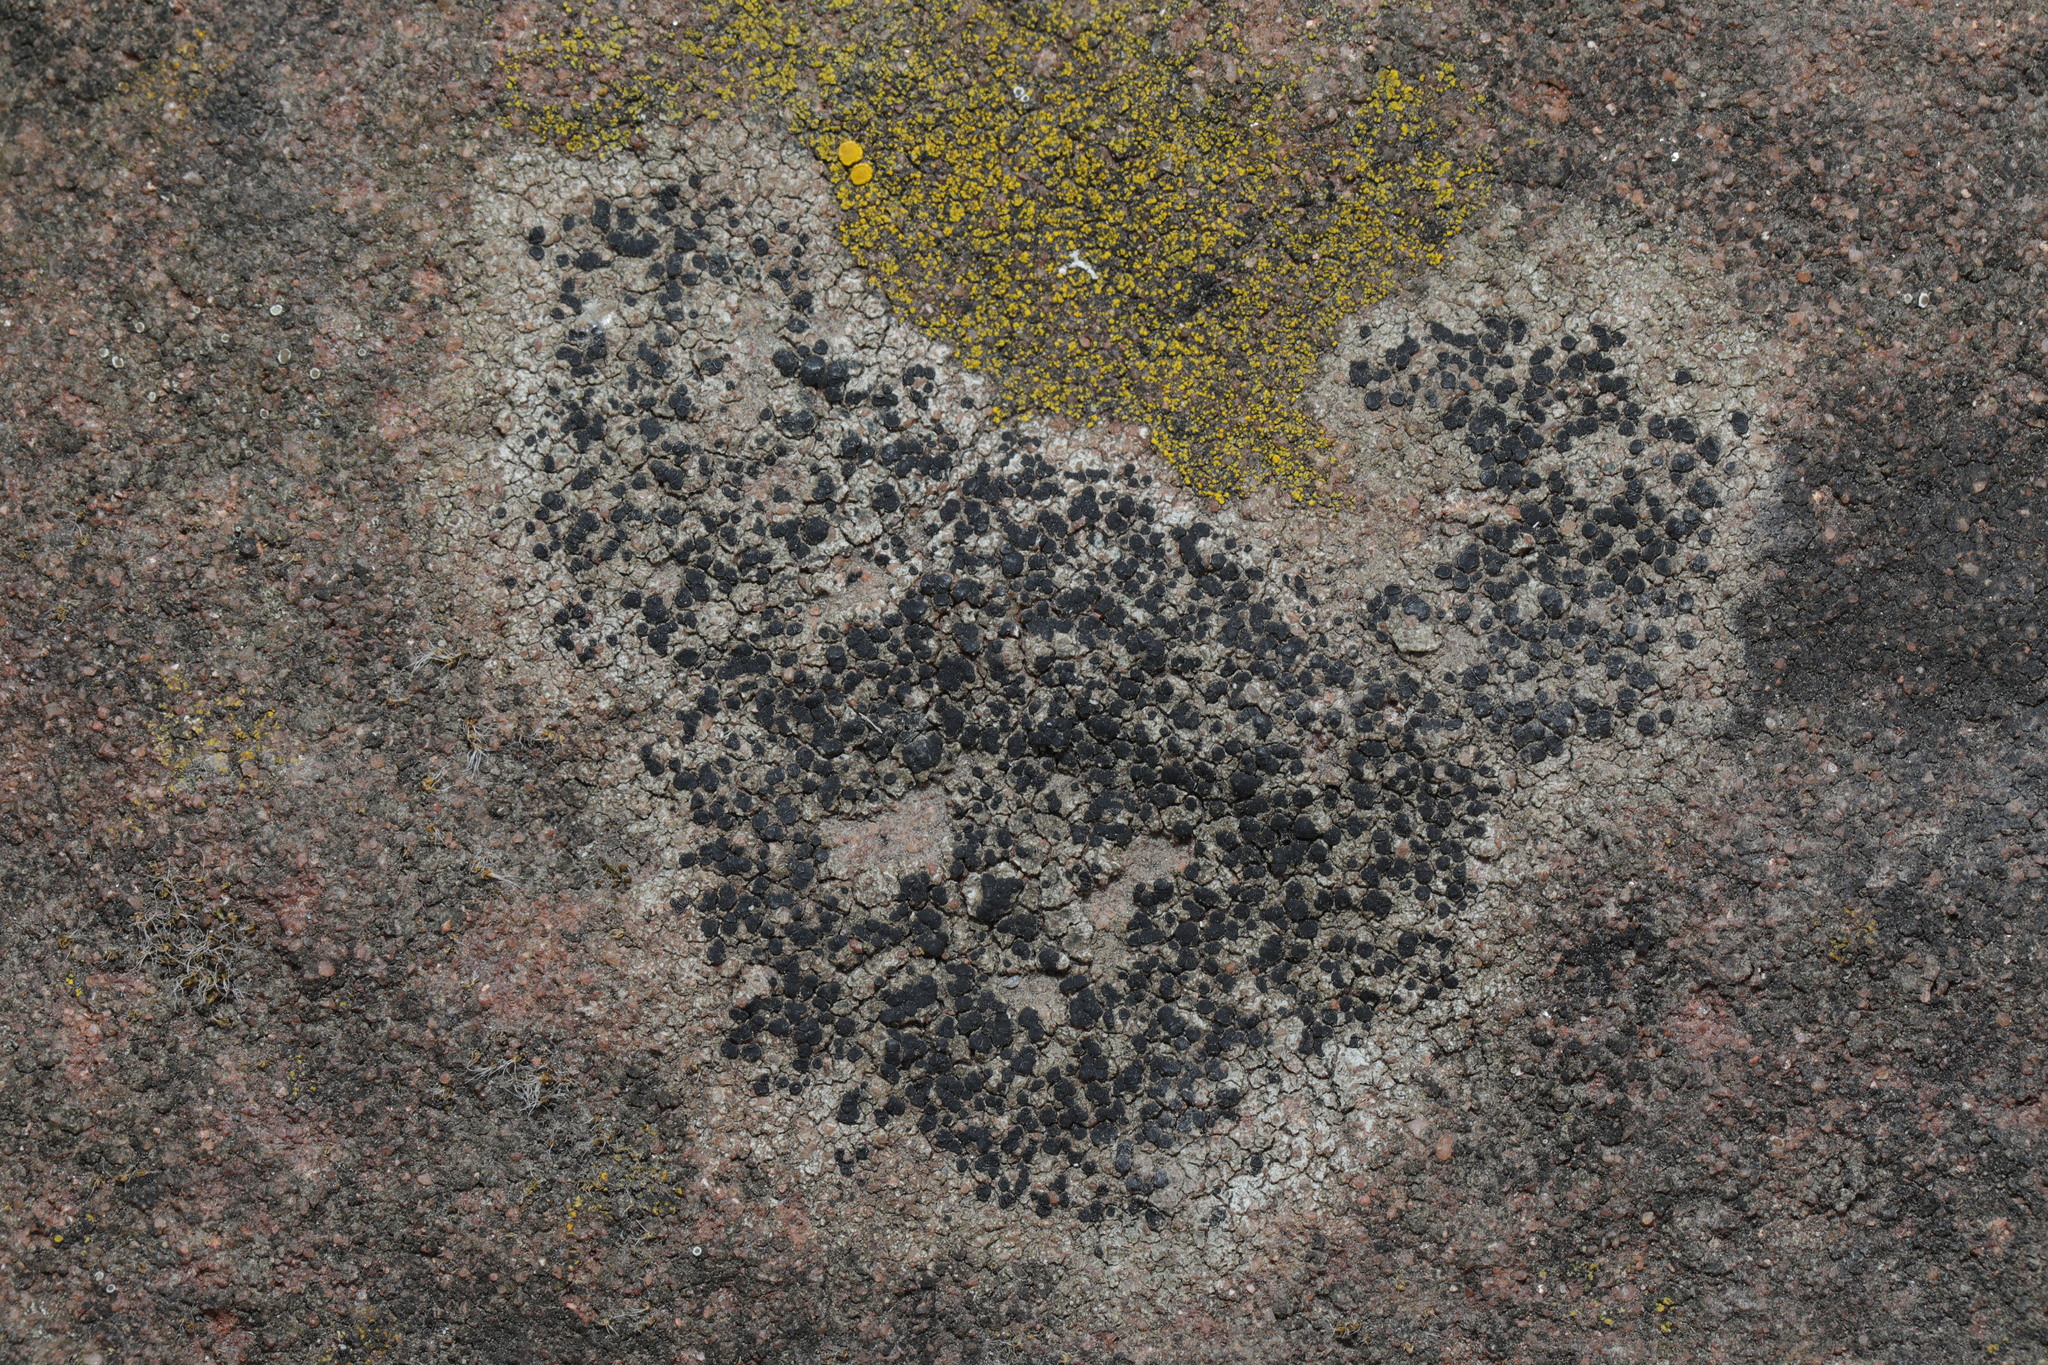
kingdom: Fungi
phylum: Ascomycota
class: Lecanoromycetes
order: Lecanorales
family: Lecanoraceae
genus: Lecidella
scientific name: Lecidella stigmatea
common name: Limestone disc lichen
